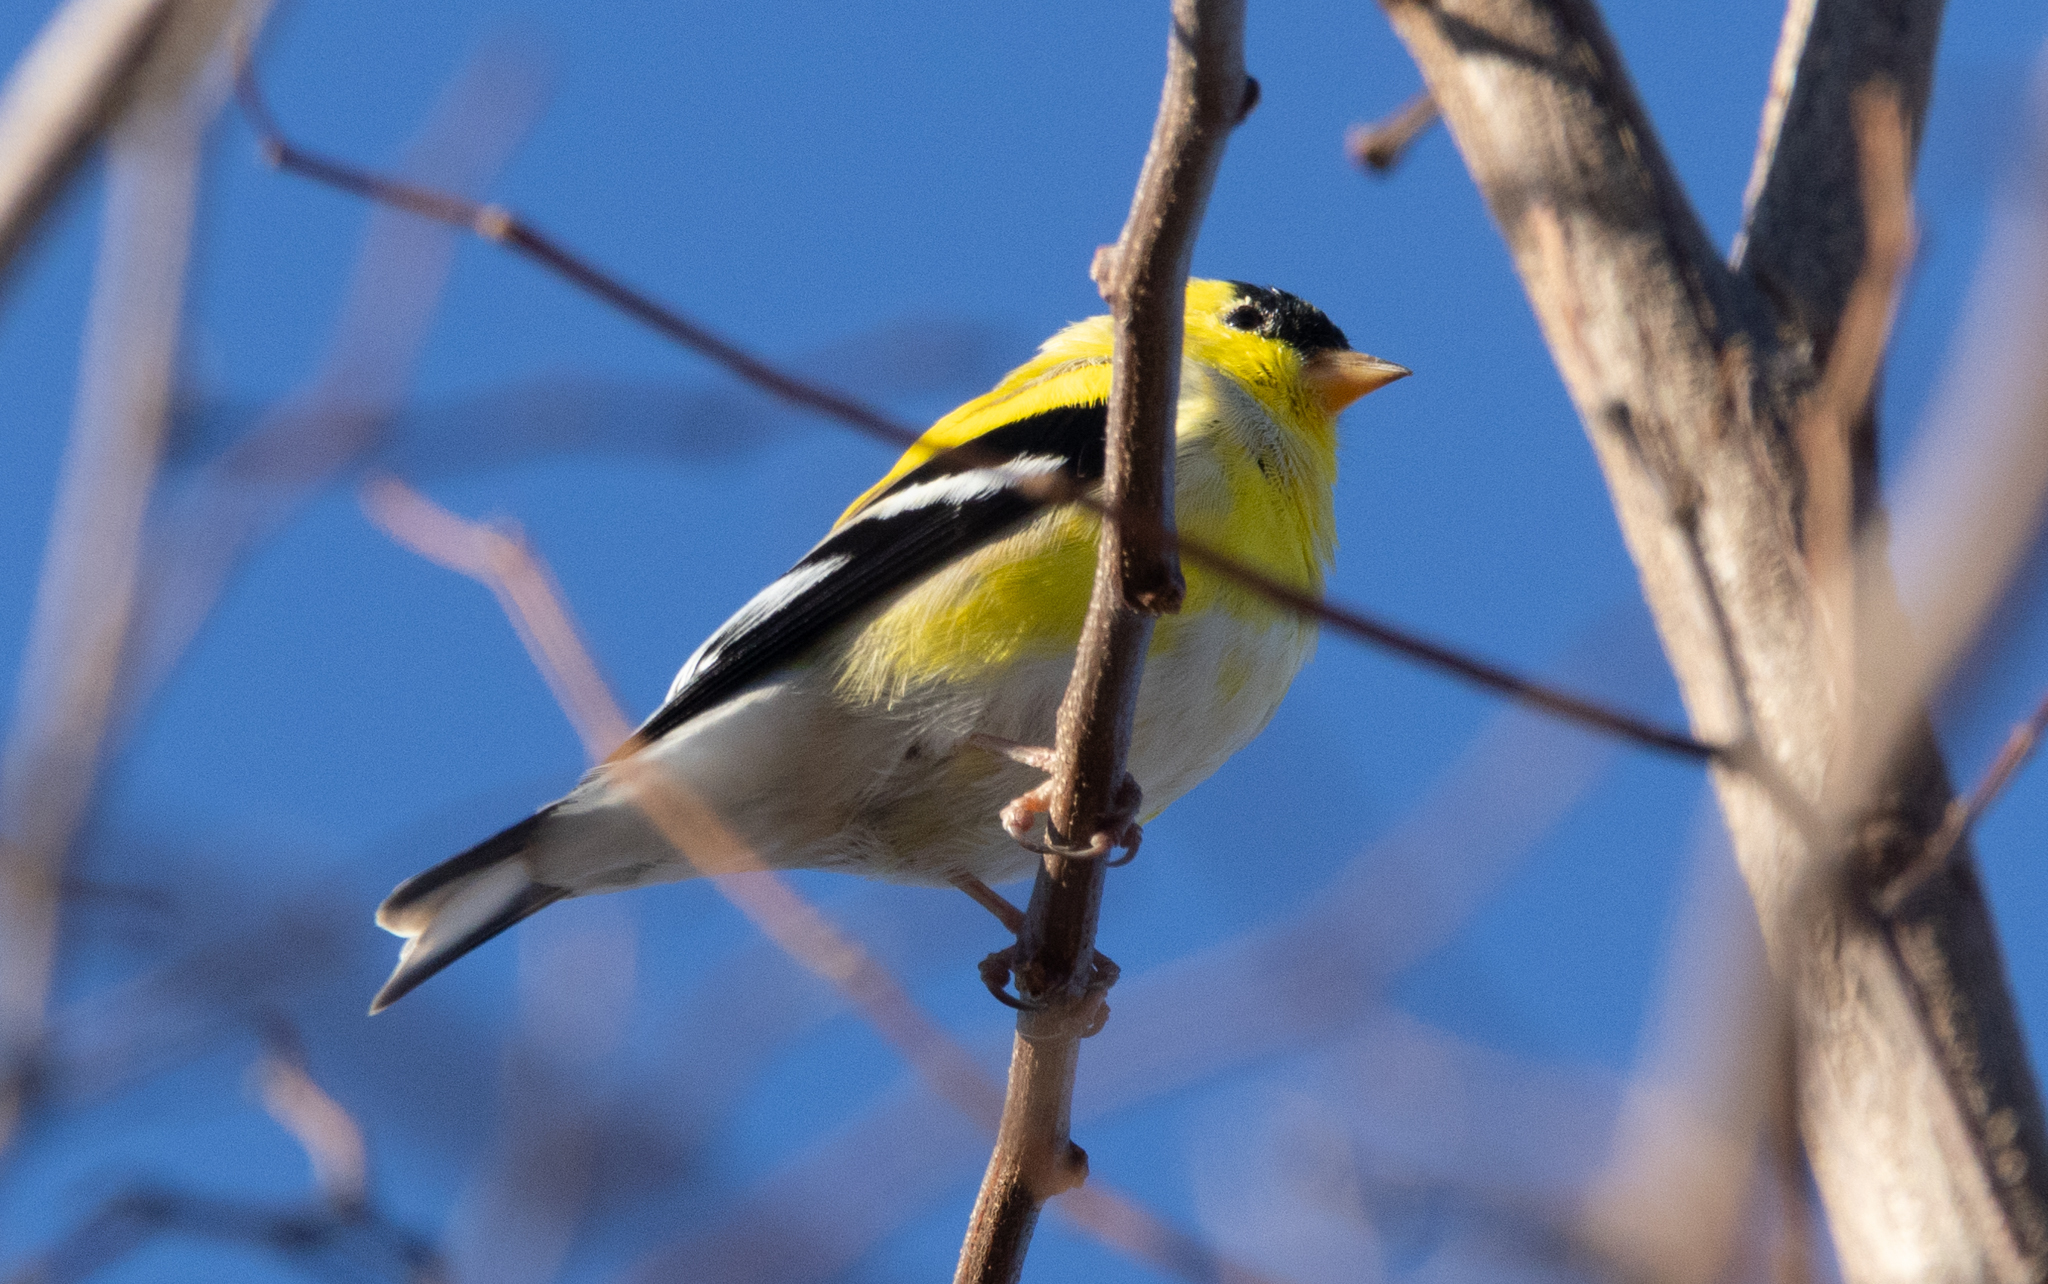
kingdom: Animalia
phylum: Chordata
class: Aves
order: Passeriformes
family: Fringillidae
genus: Spinus
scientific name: Spinus tristis
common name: American goldfinch
